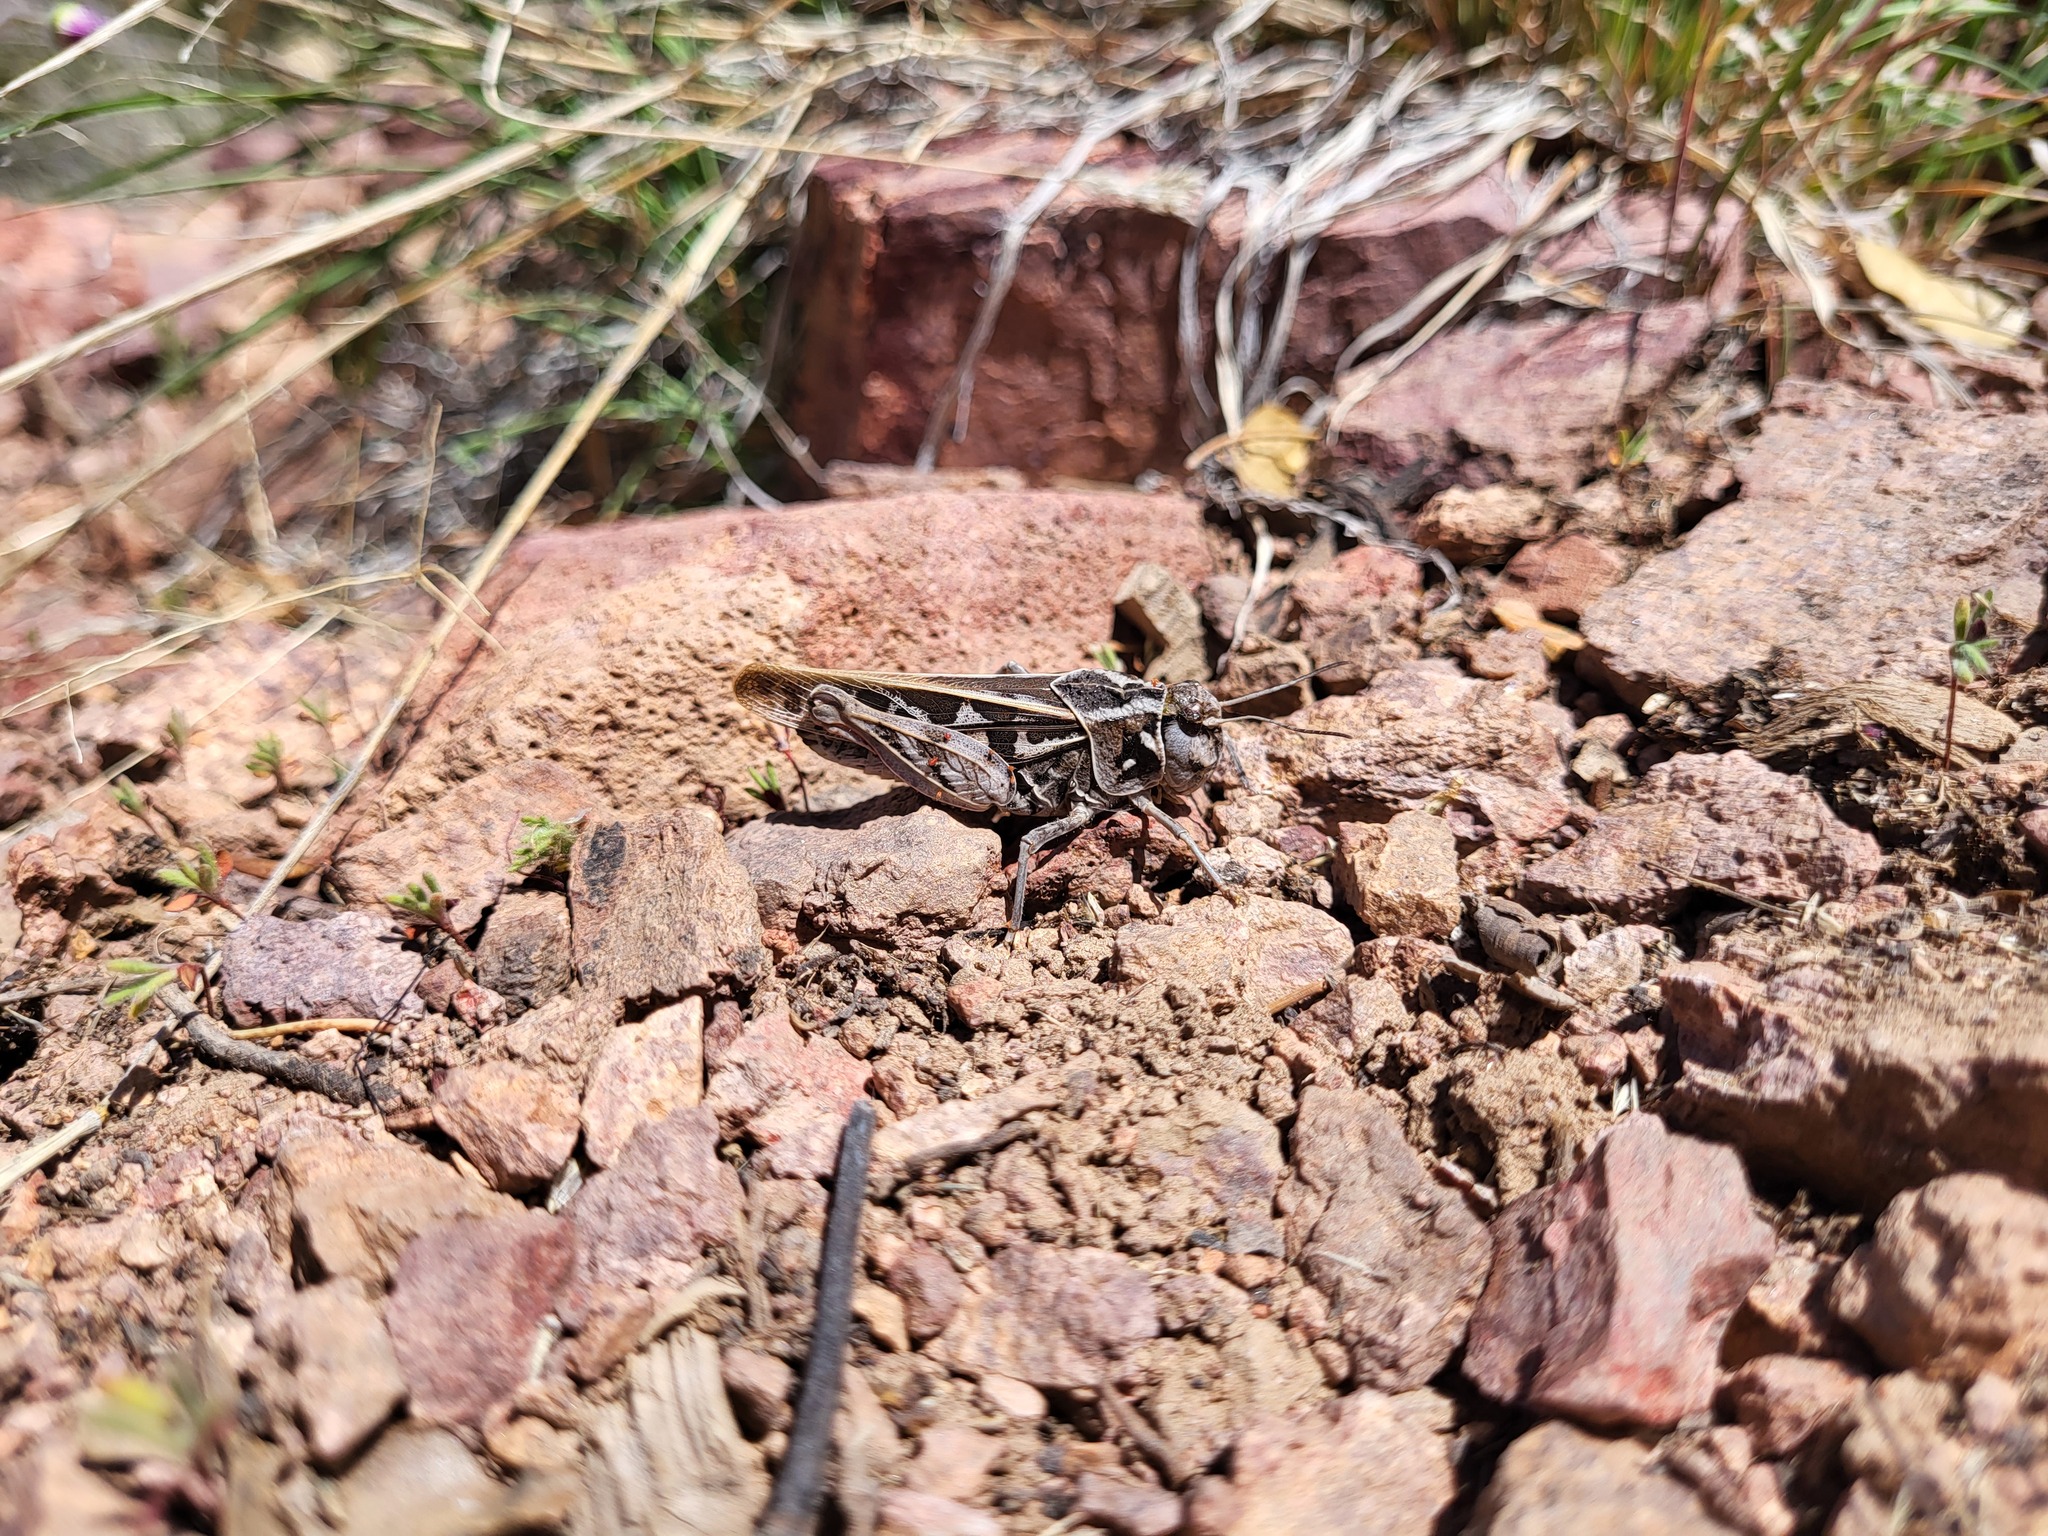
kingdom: Animalia
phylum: Arthropoda
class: Insecta
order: Orthoptera
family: Acrididae
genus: Xanthippus
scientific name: Xanthippus corallipes
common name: Redshanked grasshopper
